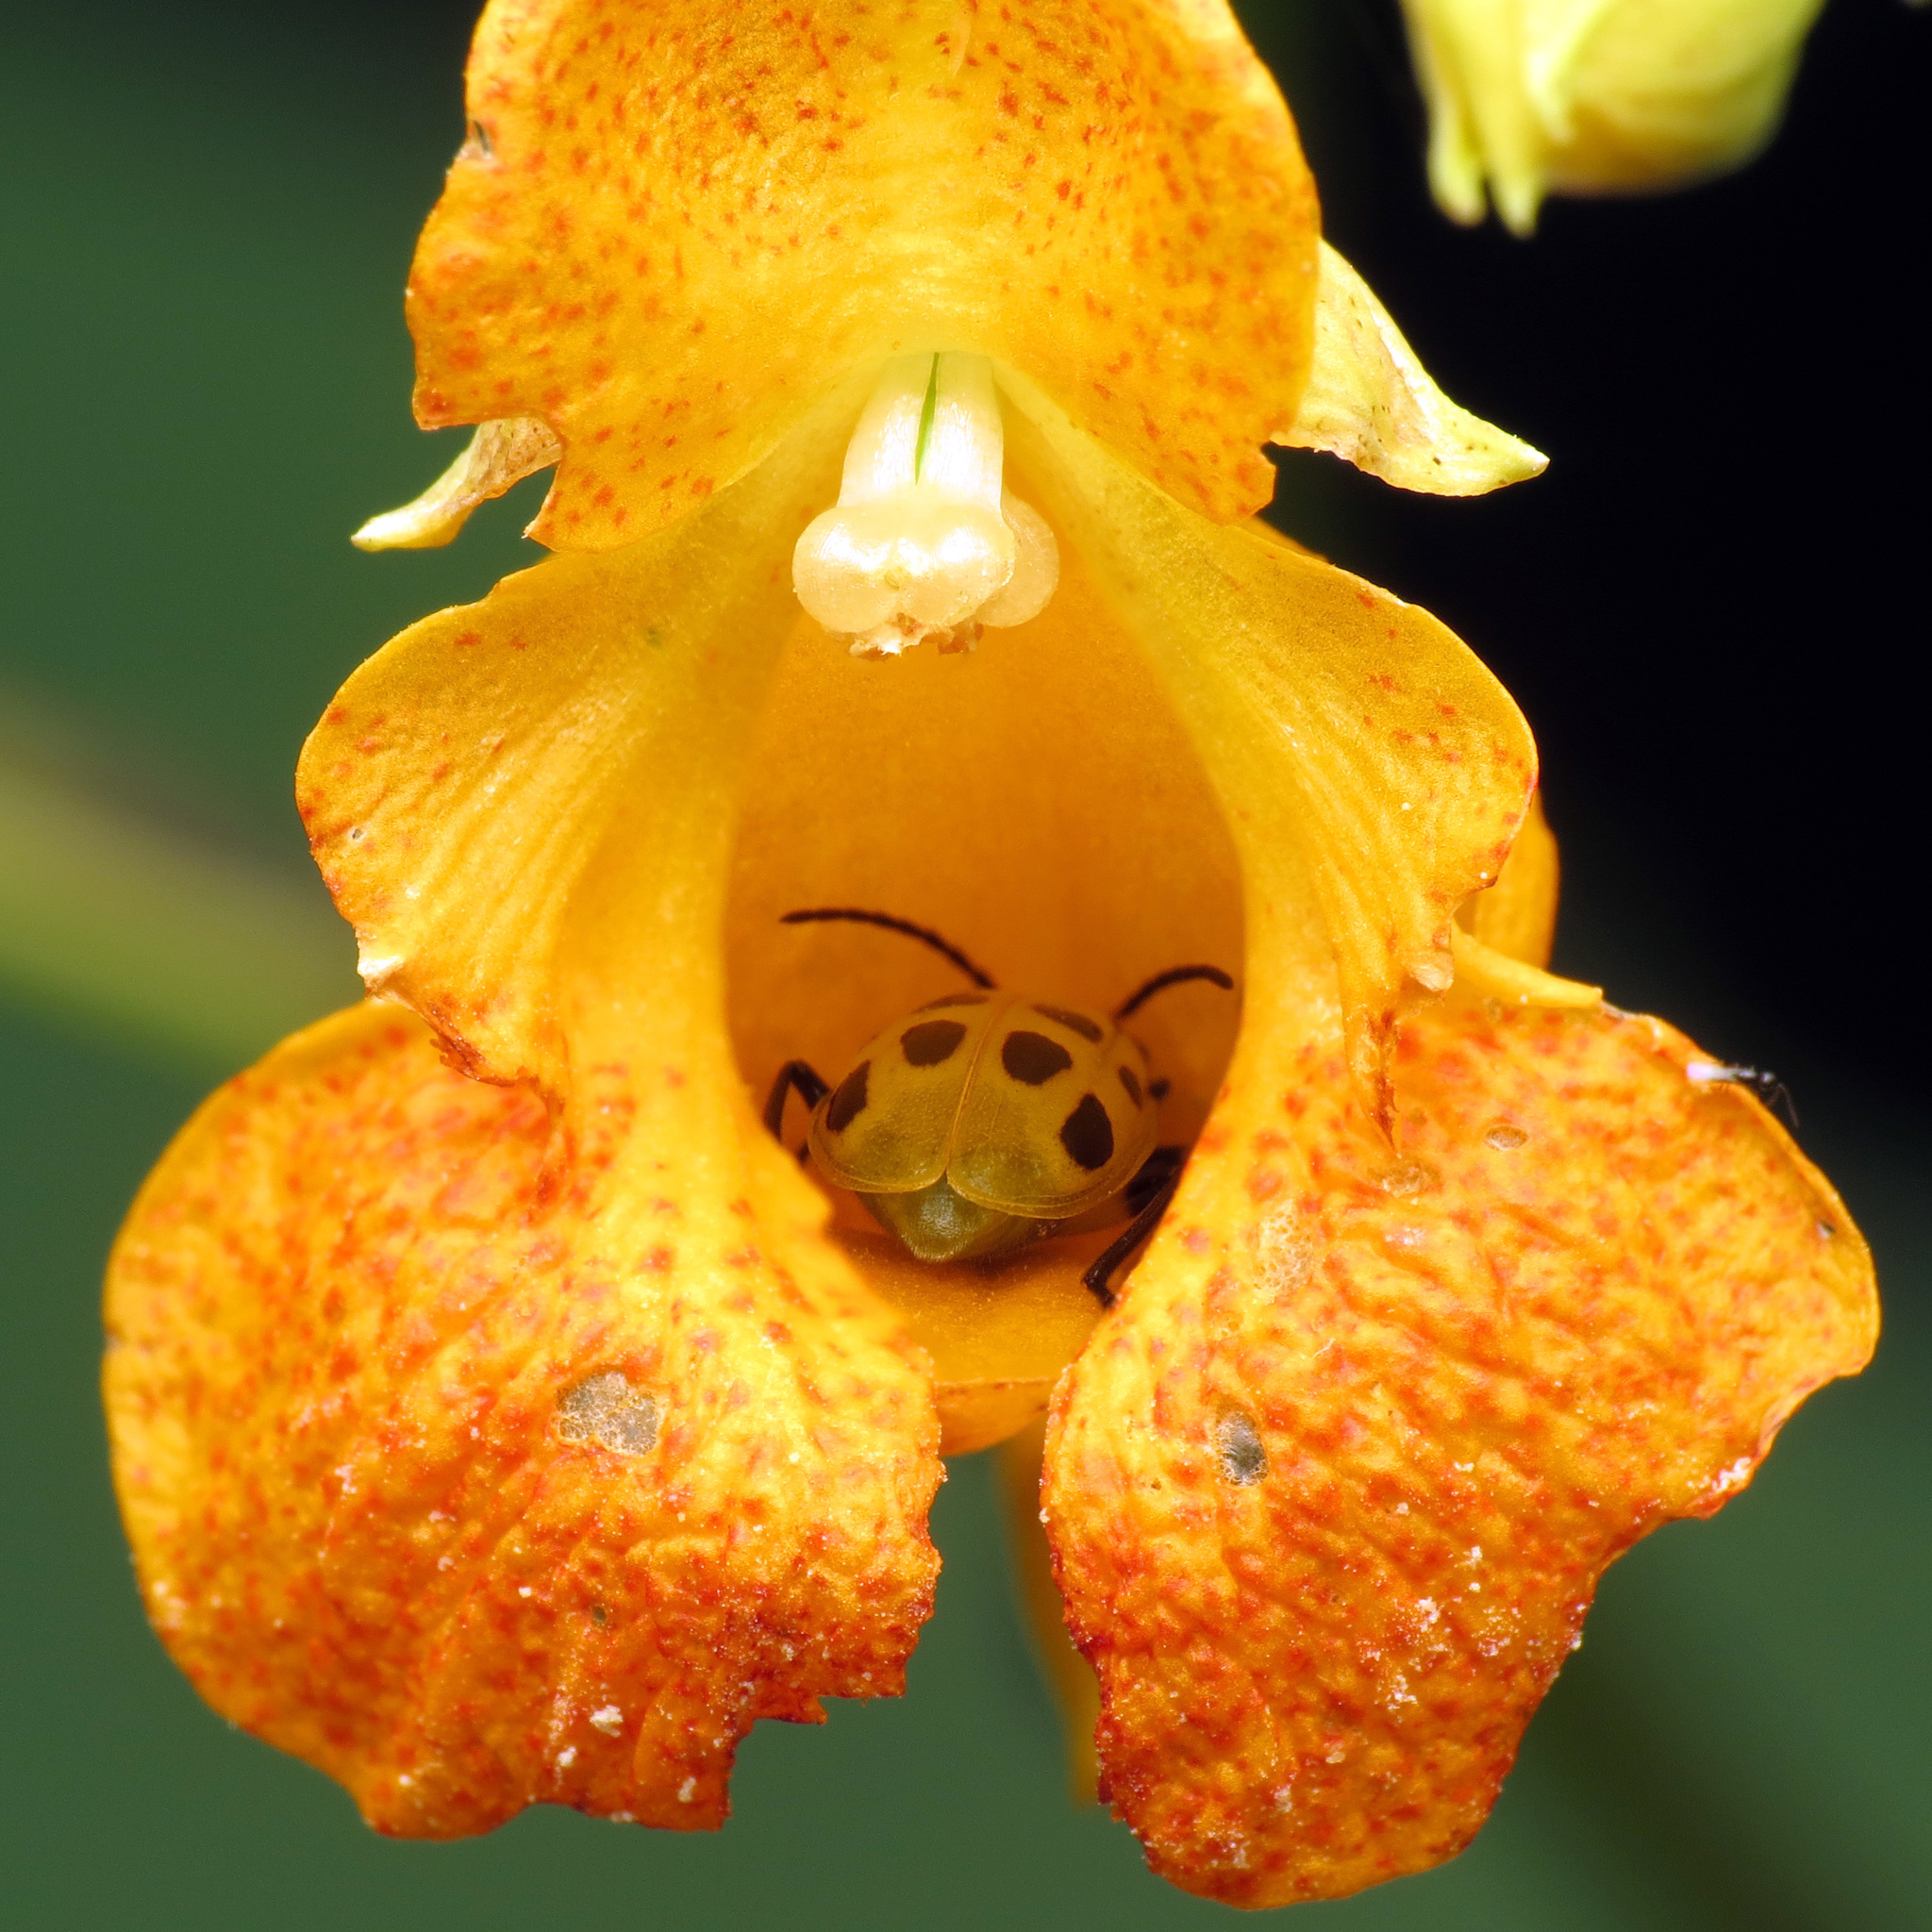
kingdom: Animalia
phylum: Arthropoda
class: Insecta
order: Coleoptera
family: Chrysomelidae
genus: Diabrotica
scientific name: Diabrotica undecimpunctata
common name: Spotted cucumber beetle
